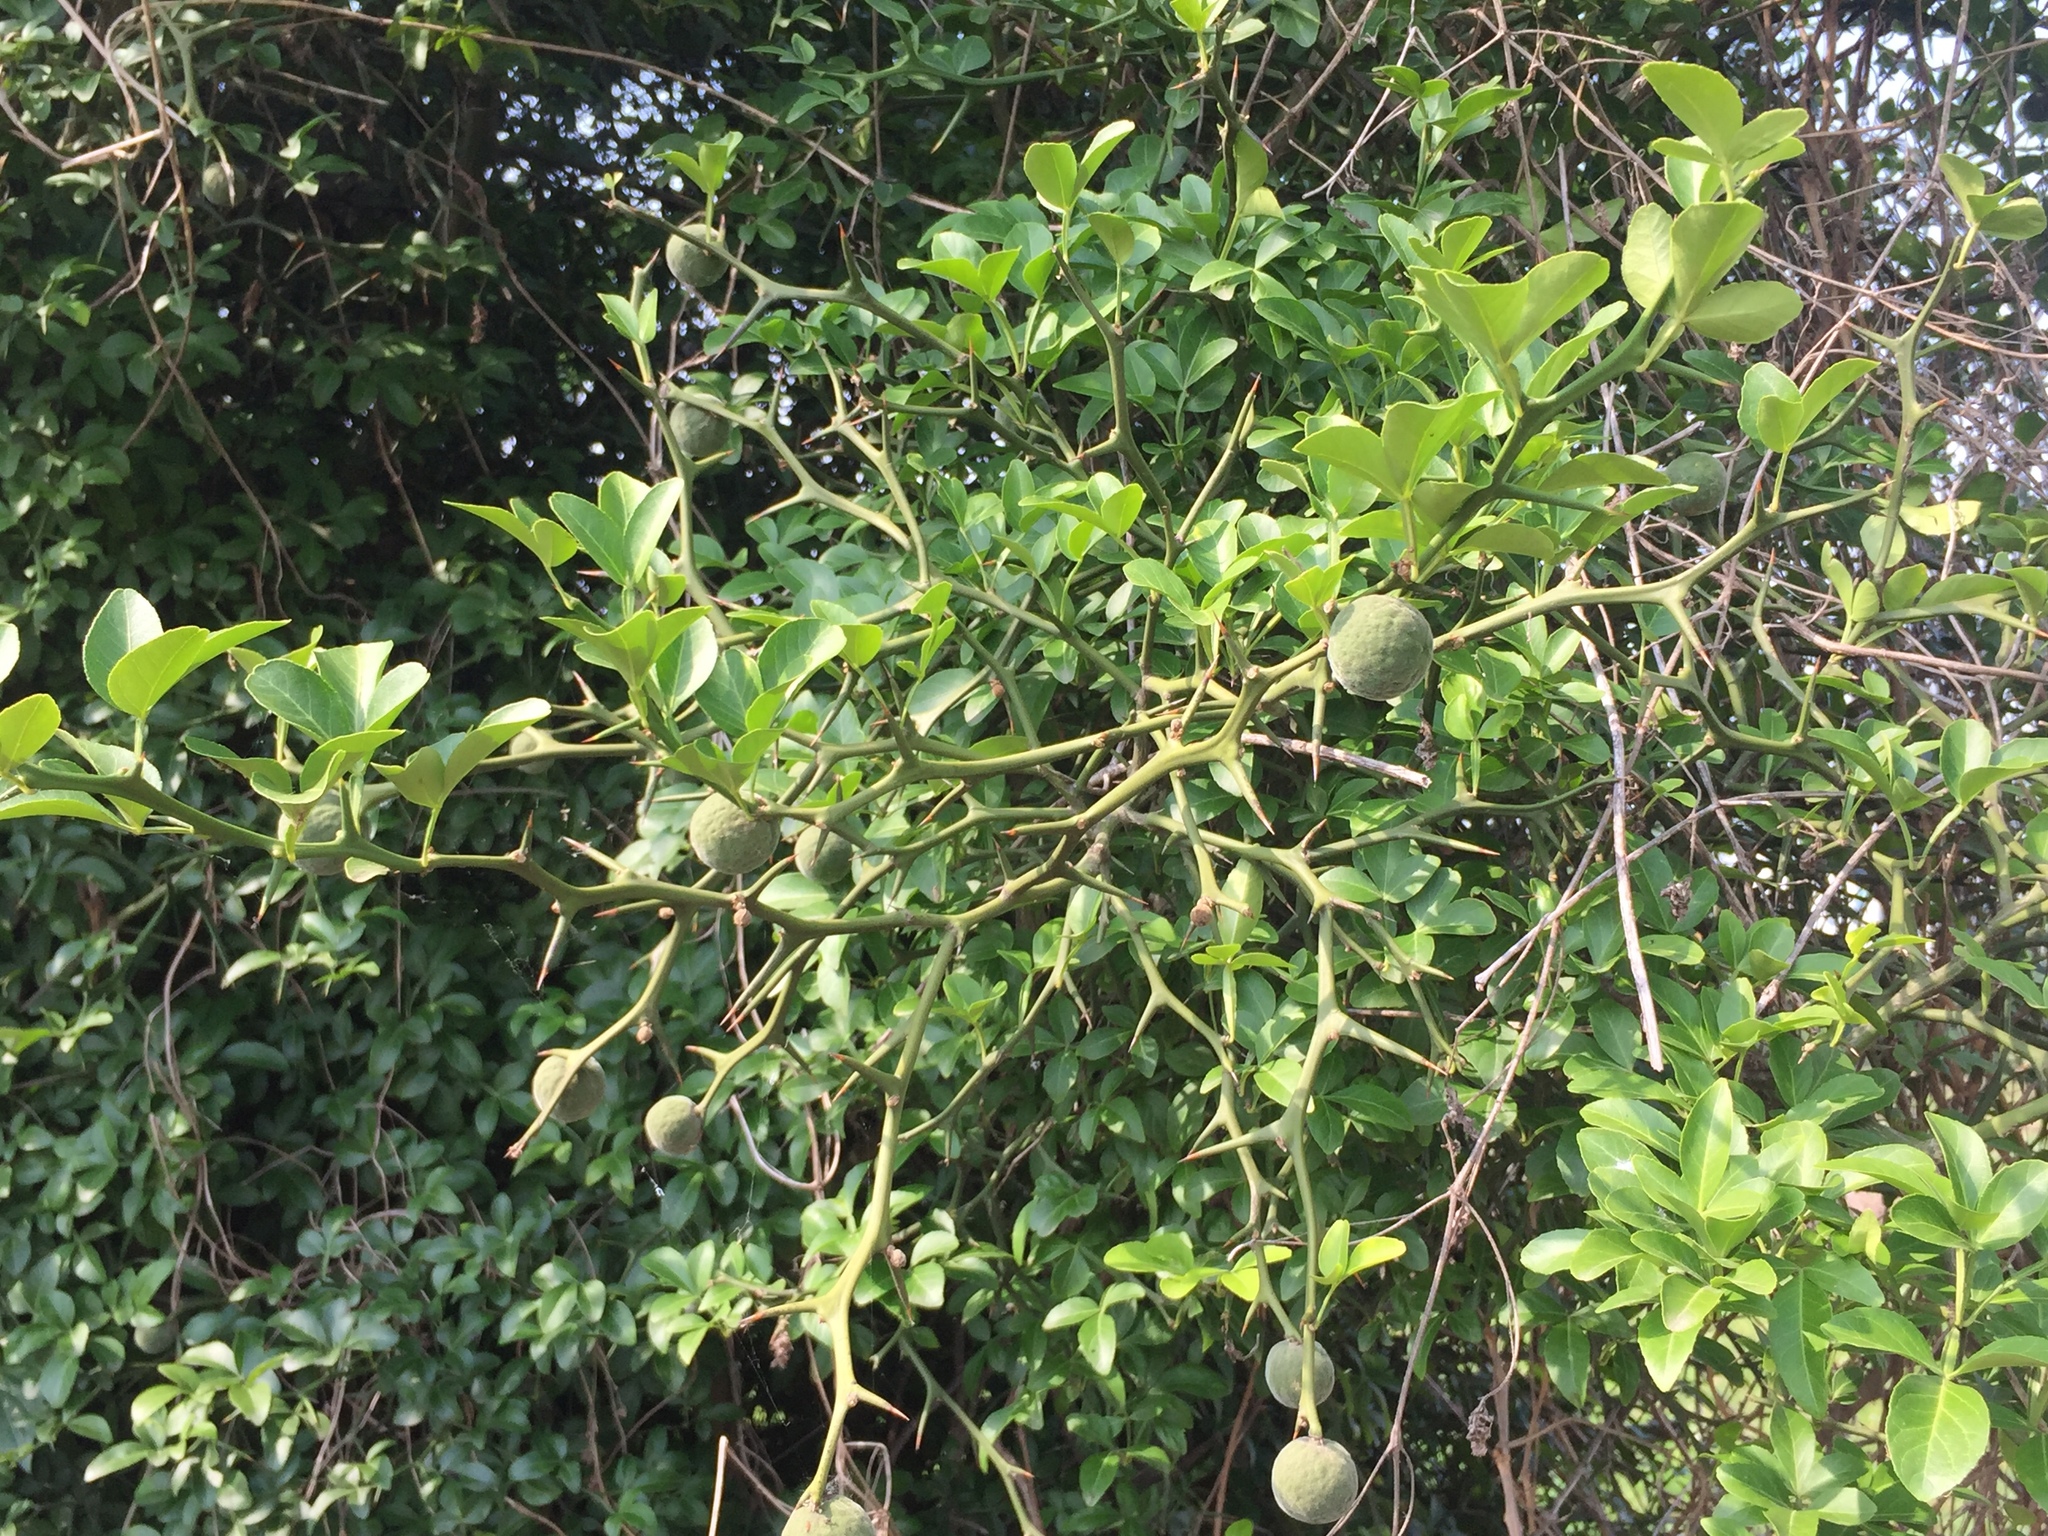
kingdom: Plantae
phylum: Tracheophyta
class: Magnoliopsida
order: Sapindales
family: Rutaceae
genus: Citrus
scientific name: Citrus trifoliata
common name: Japanese bitter-orange
